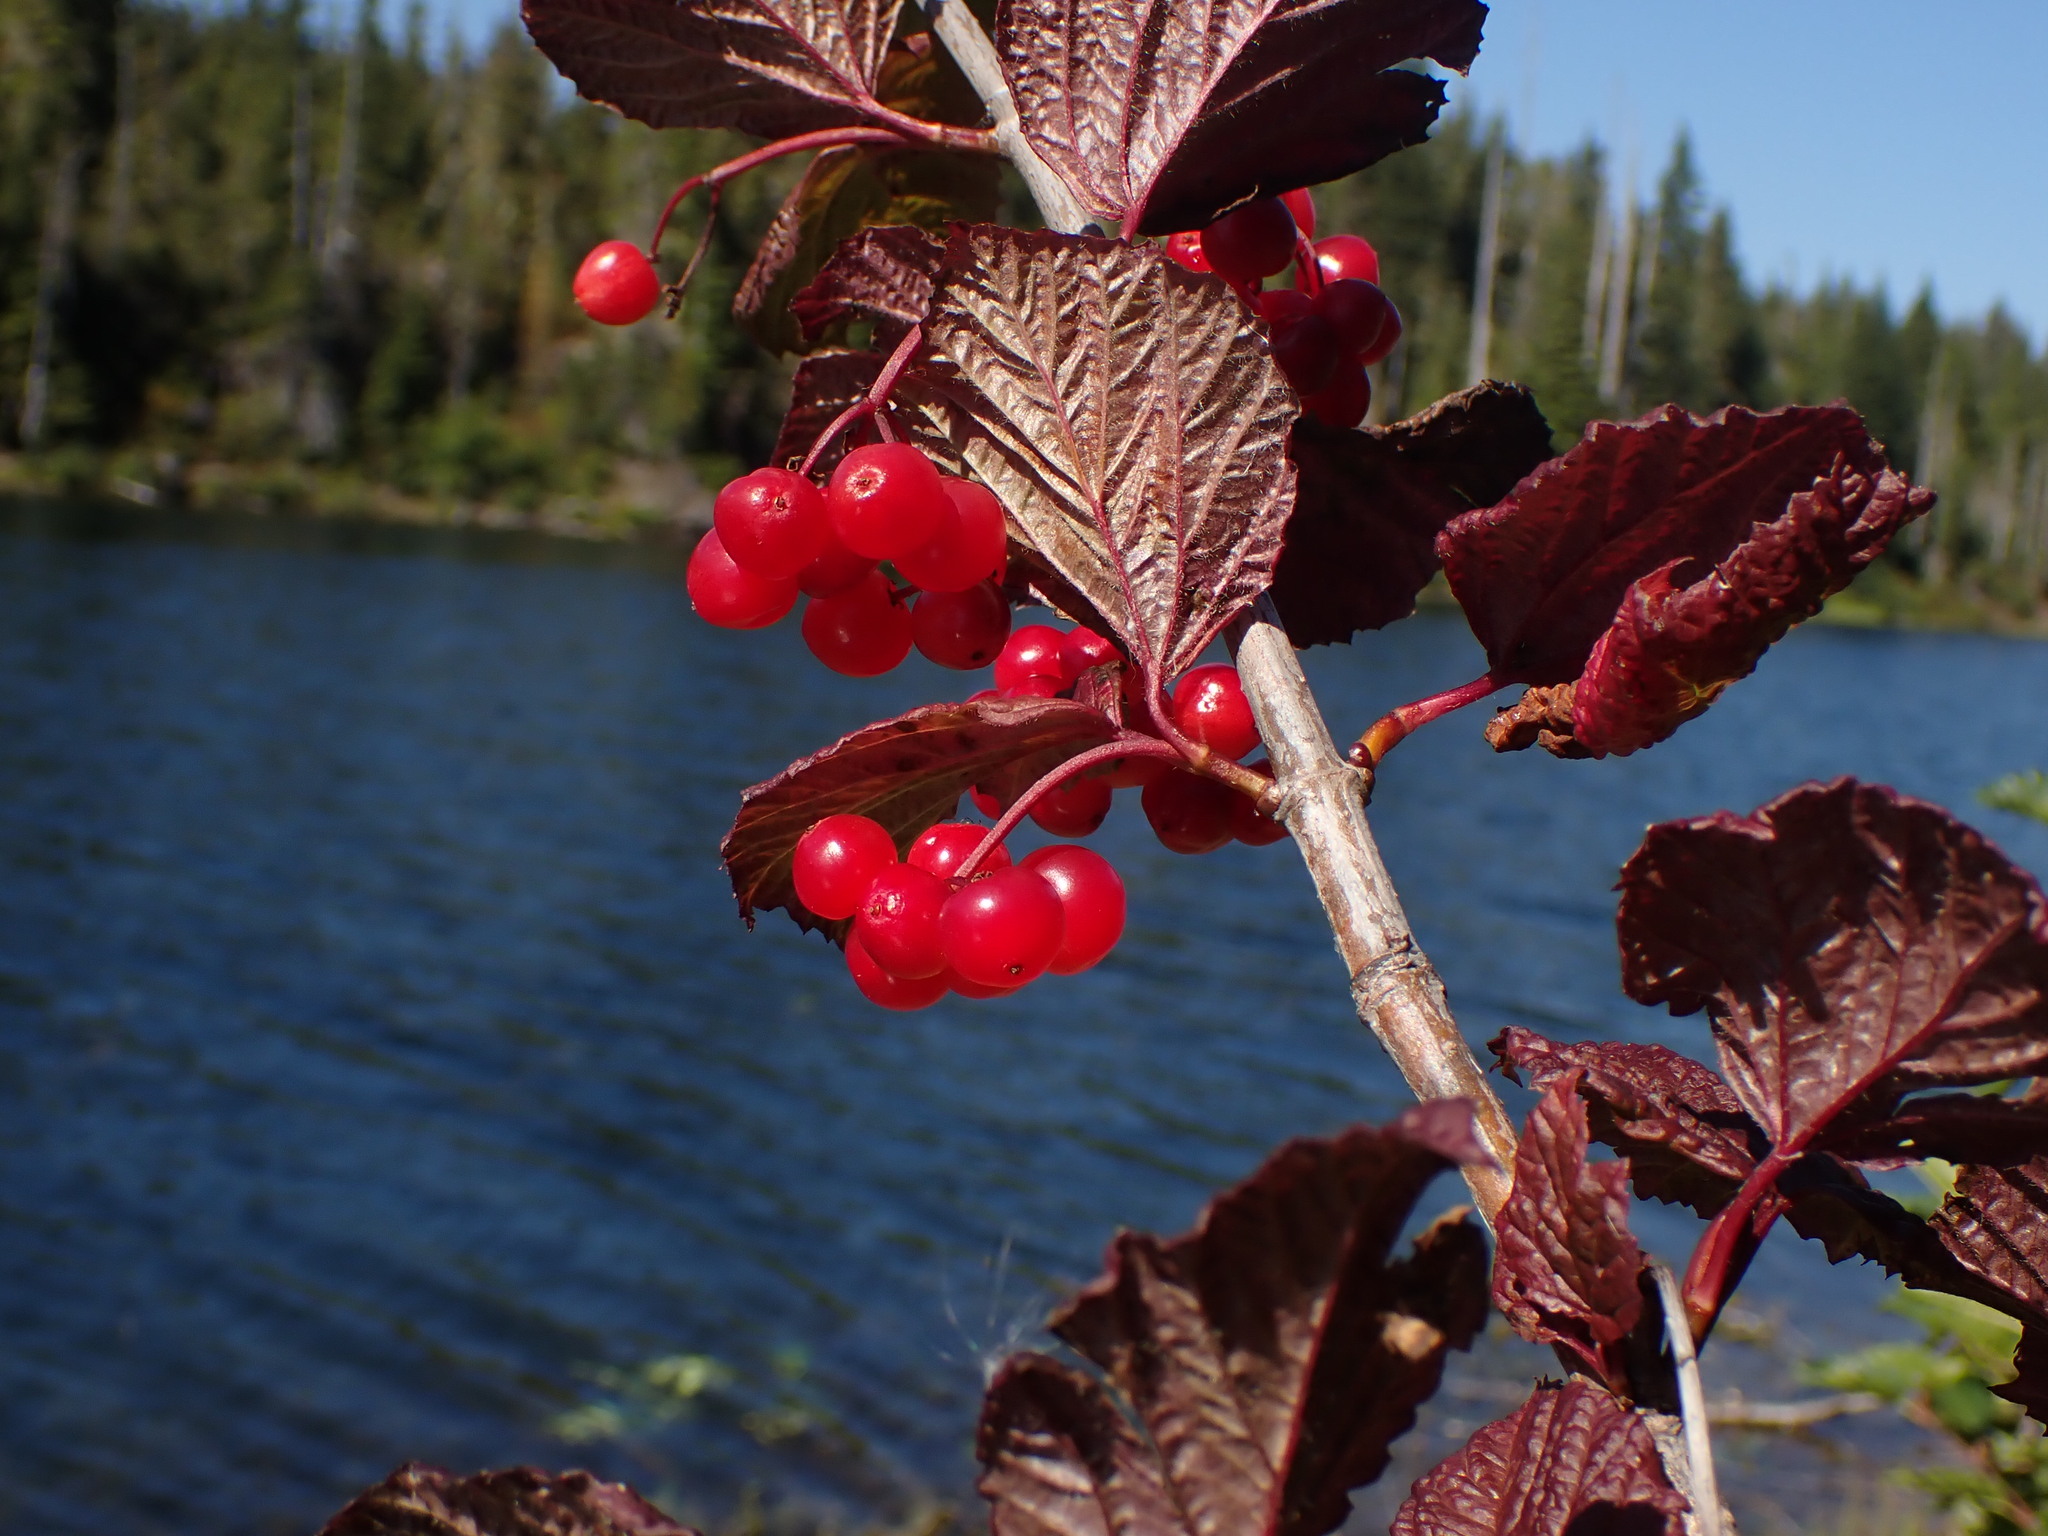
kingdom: Plantae
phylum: Tracheophyta
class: Magnoliopsida
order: Dipsacales
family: Viburnaceae
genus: Viburnum
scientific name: Viburnum edule
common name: Mooseberry
